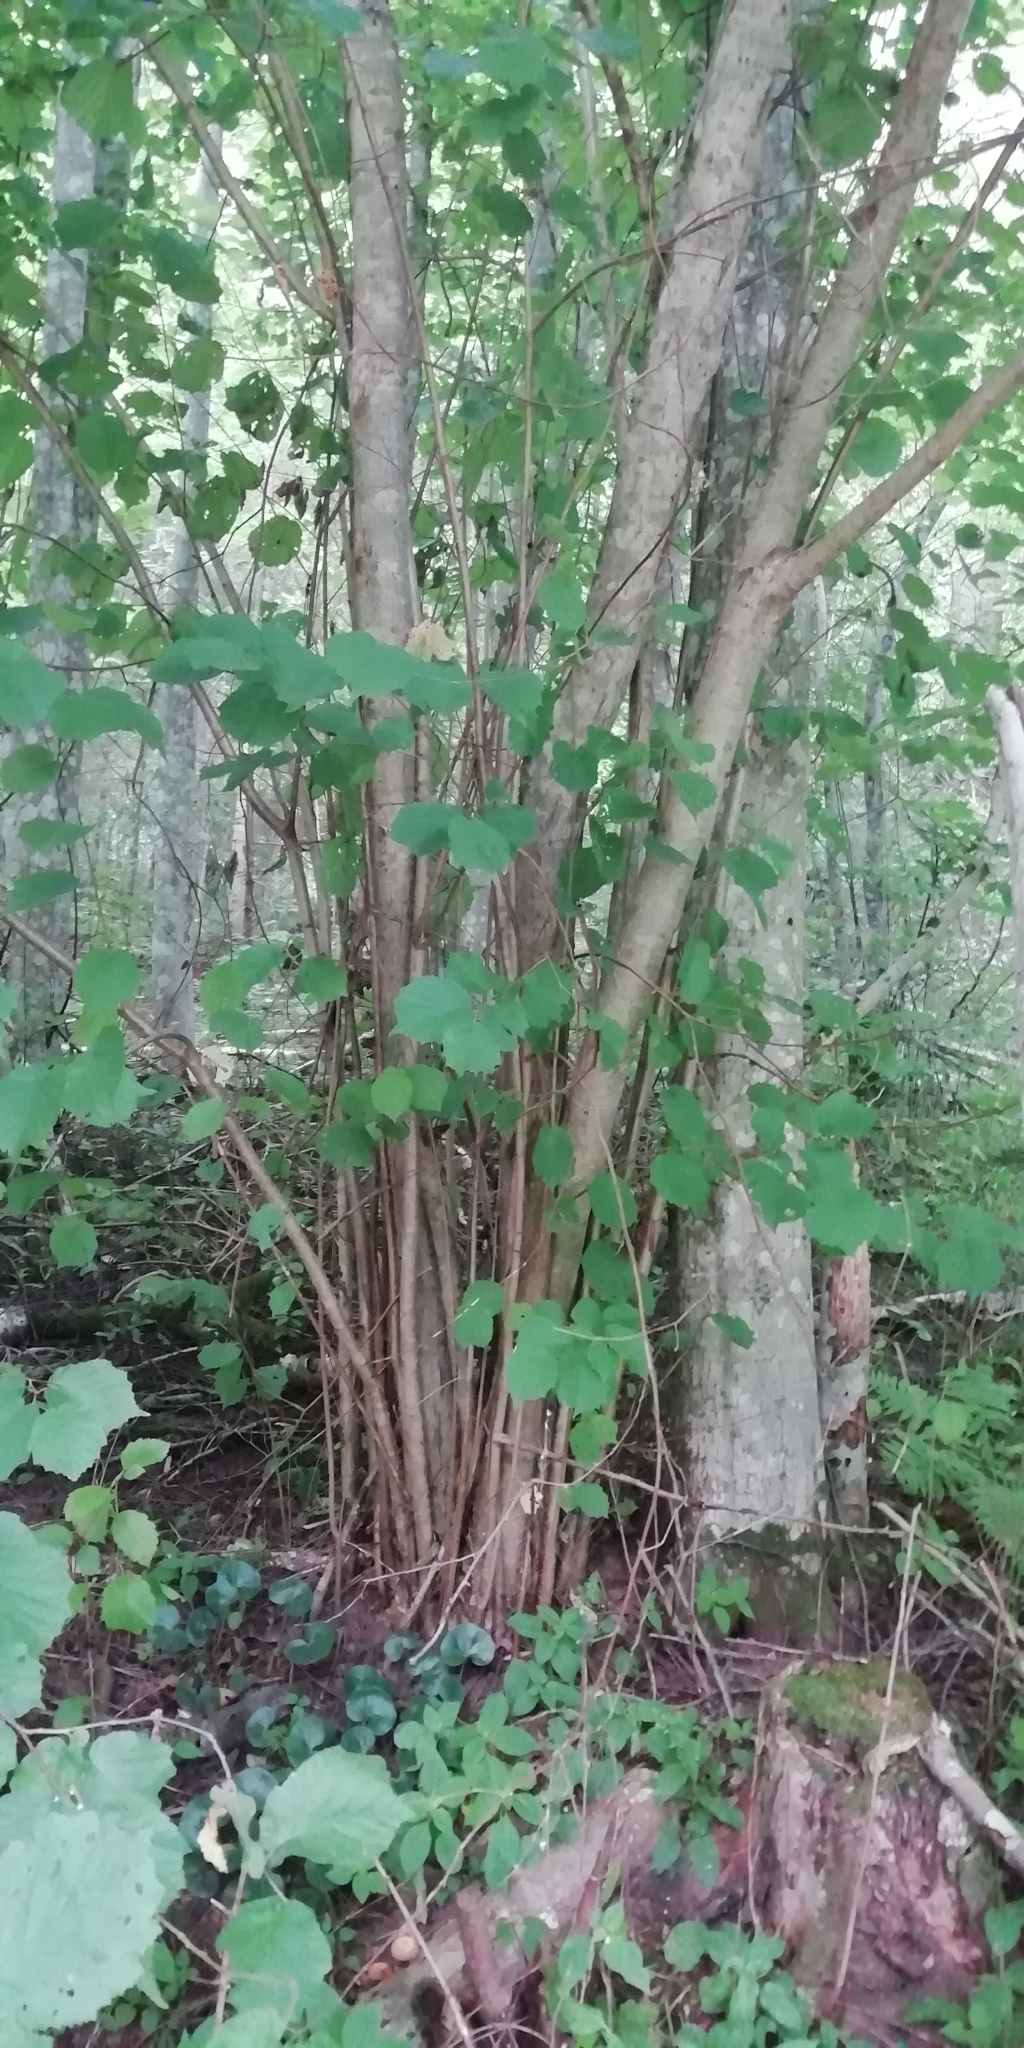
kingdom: Plantae
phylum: Tracheophyta
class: Magnoliopsida
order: Fagales
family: Betulaceae
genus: Corylus
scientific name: Corylus avellana
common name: European hazel
